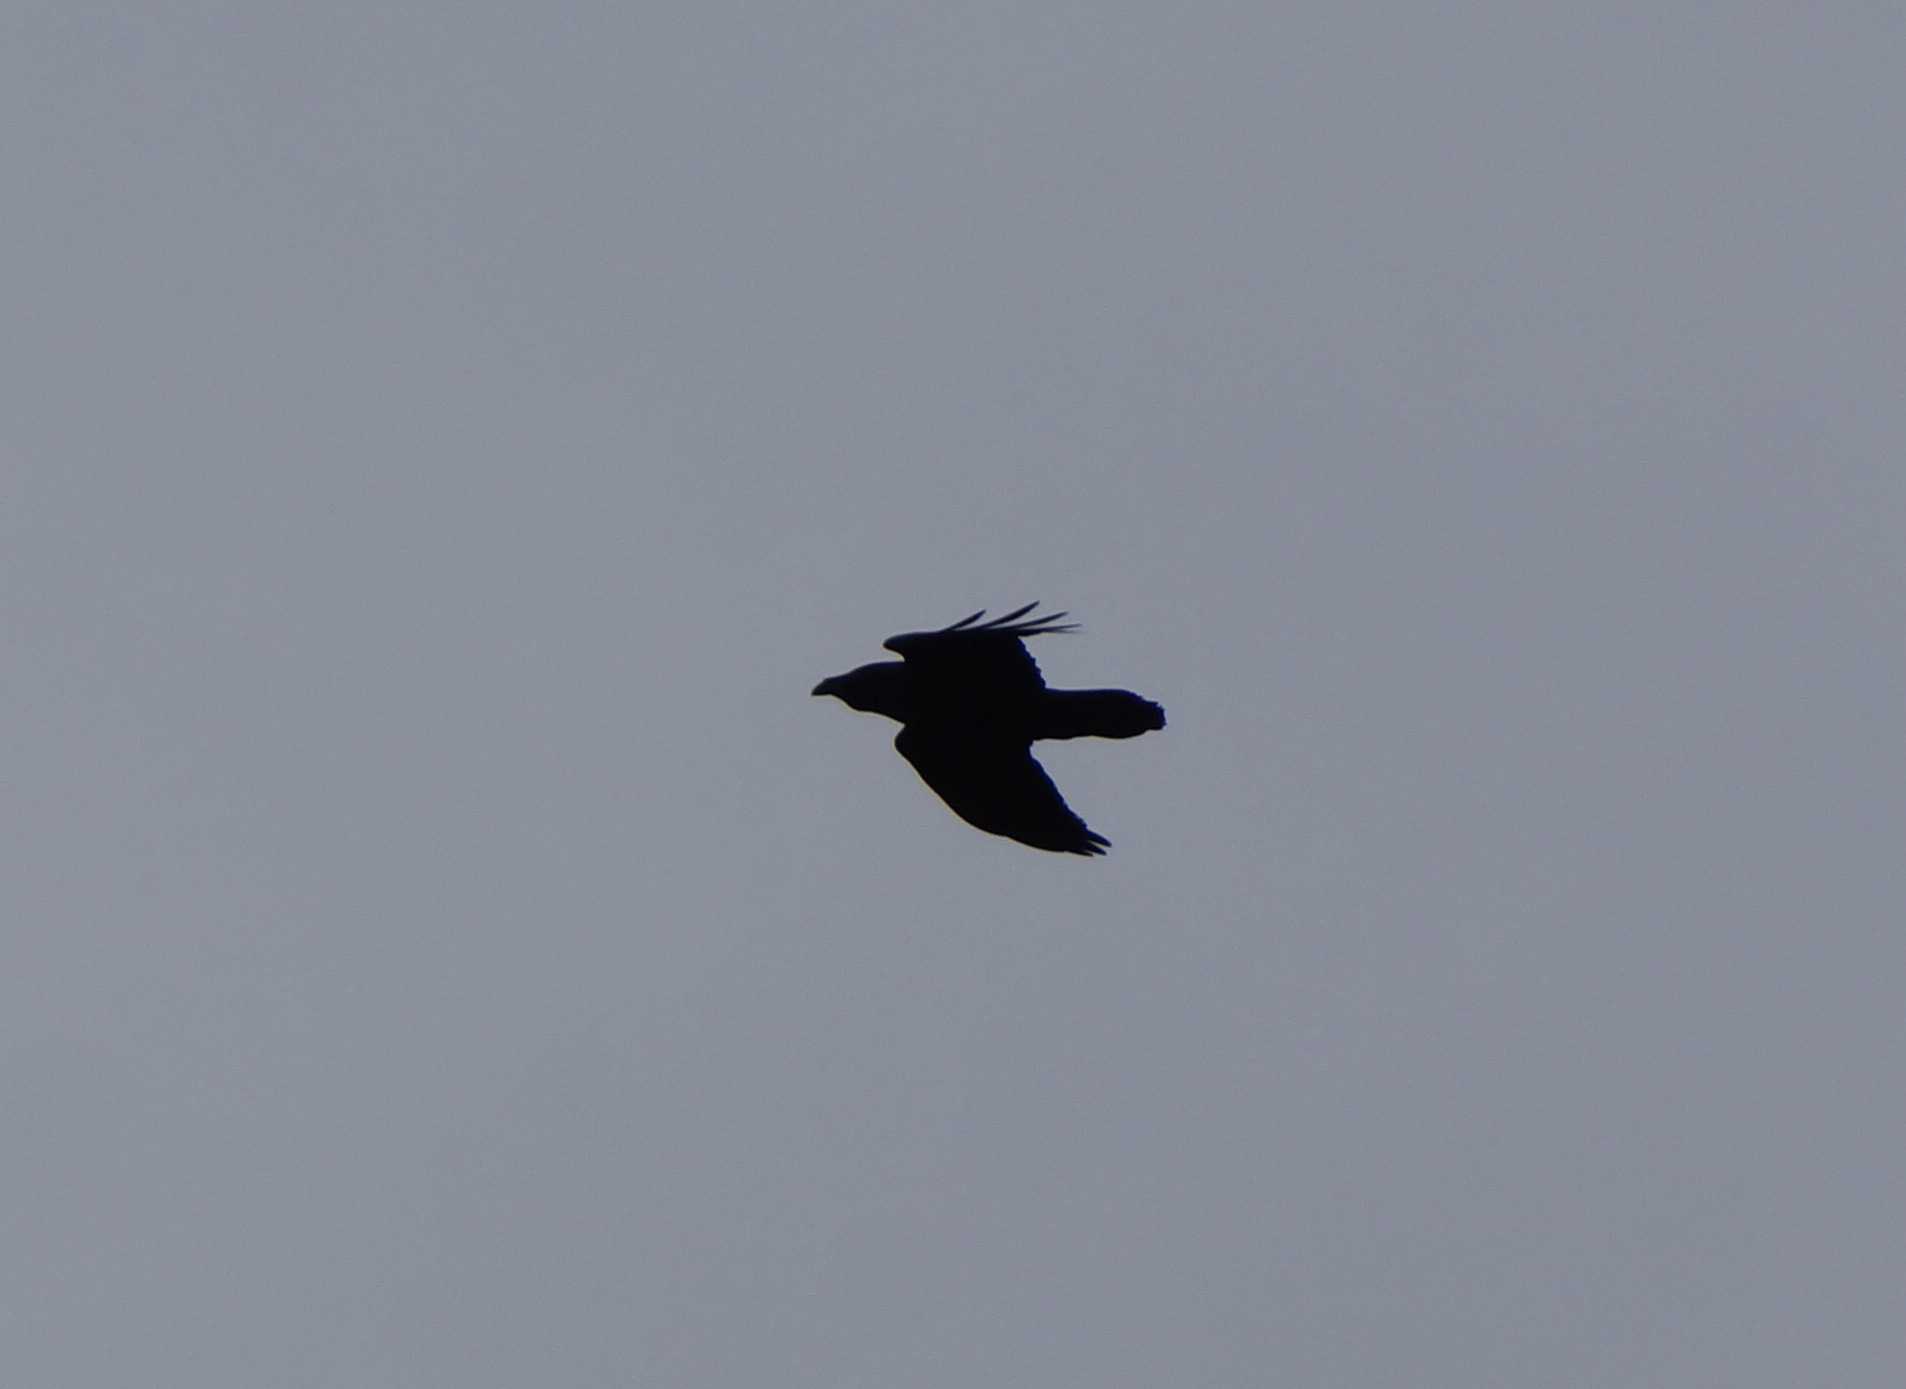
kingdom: Animalia
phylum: Chordata
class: Aves
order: Passeriformes
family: Corvidae
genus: Corvus
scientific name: Corvus corax
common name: Common raven
